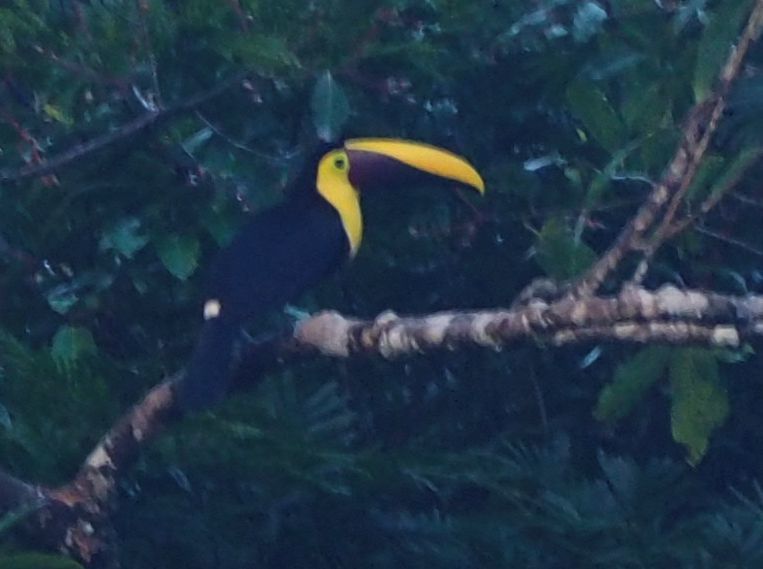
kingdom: Animalia
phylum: Chordata
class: Aves
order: Piciformes
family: Ramphastidae
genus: Ramphastos
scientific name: Ramphastos ambiguus
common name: Yellow-throated toucan
